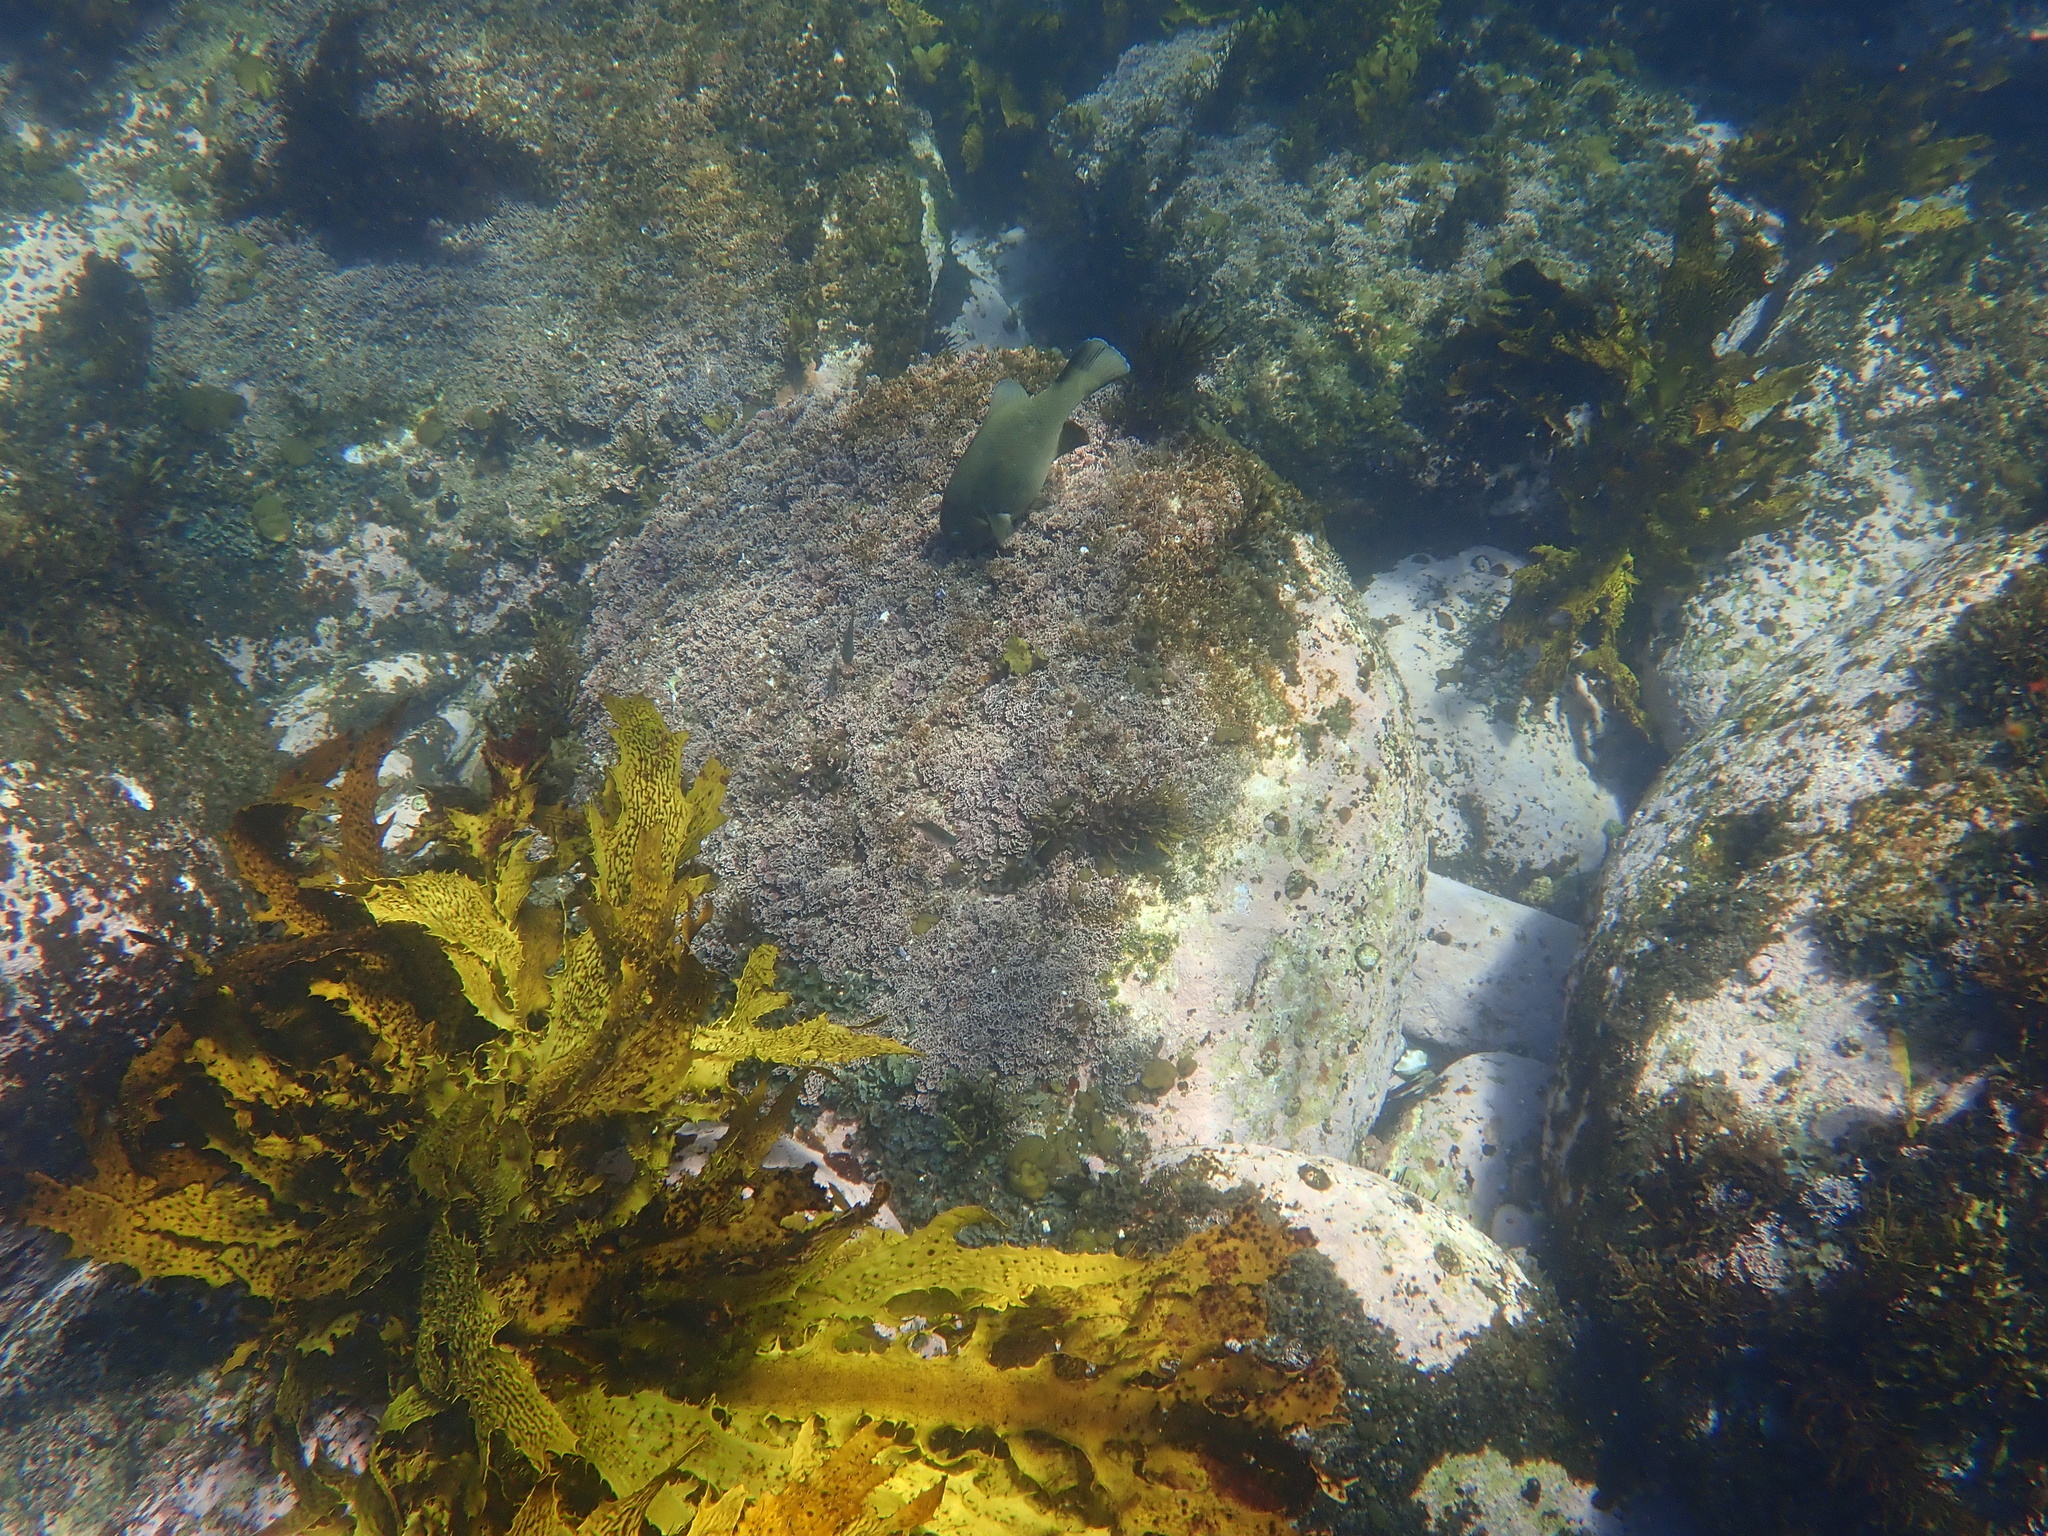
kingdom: Animalia
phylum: Chordata
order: Perciformes
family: Labridae
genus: Achoerodus
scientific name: Achoerodus viridis
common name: Brown groper
